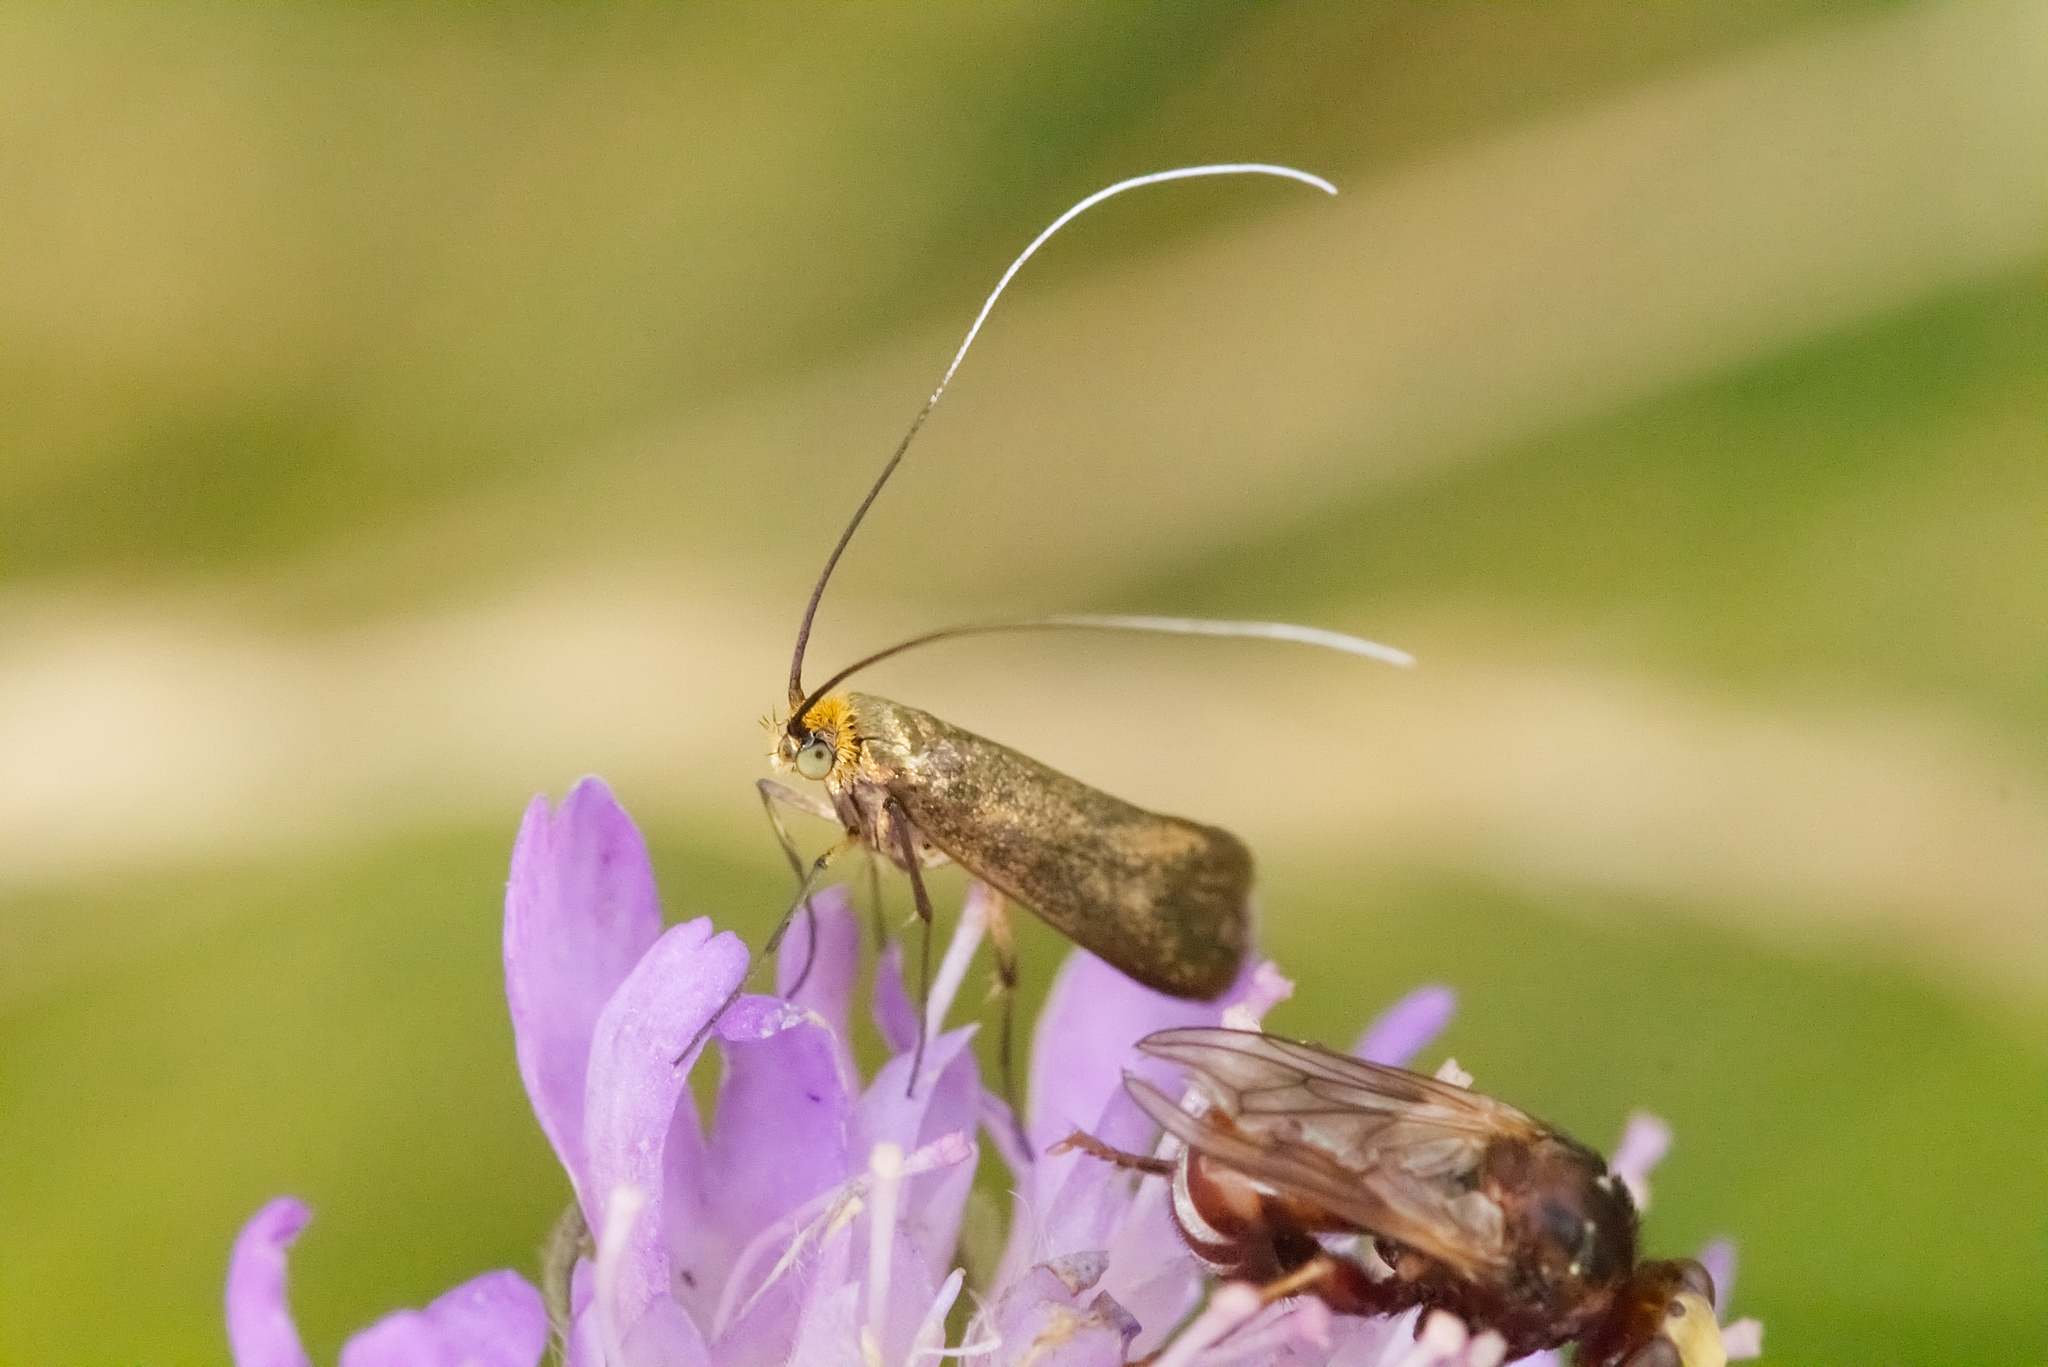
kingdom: Animalia
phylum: Arthropoda
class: Insecta
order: Lepidoptera
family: Adelidae
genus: Nemophora
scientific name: Nemophora metallica
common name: Brassy long-horn
